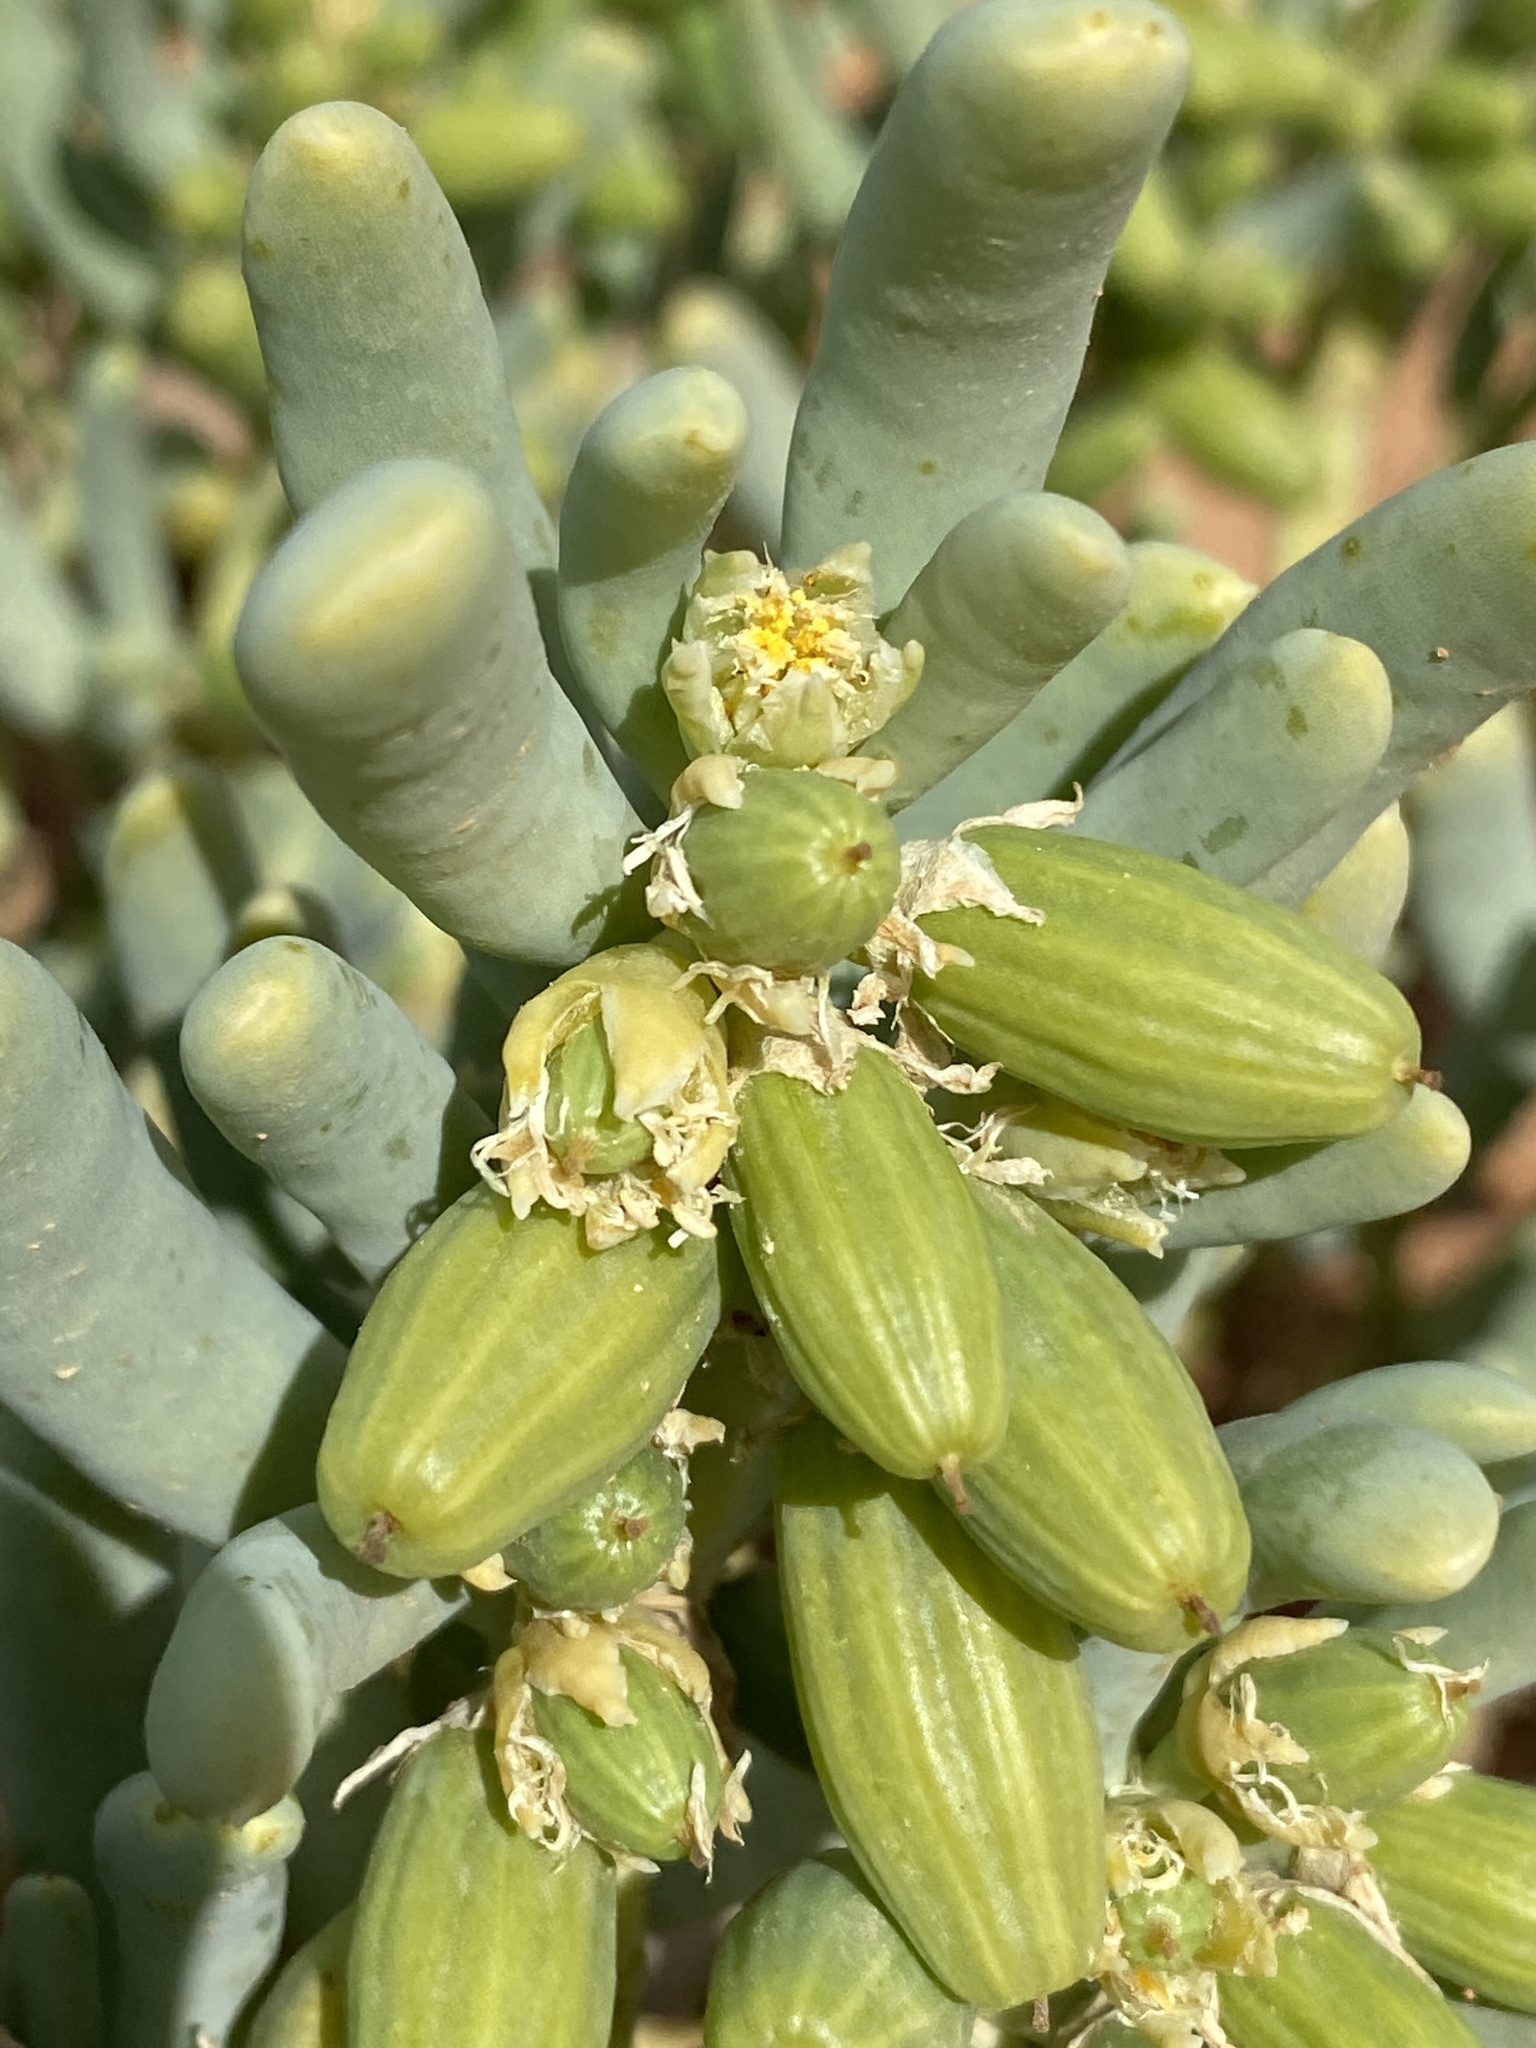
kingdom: Plantae
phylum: Tracheophyta
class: Magnoliopsida
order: Zygophyllales
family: Zygophyllaceae
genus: Augea
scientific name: Augea capensis
